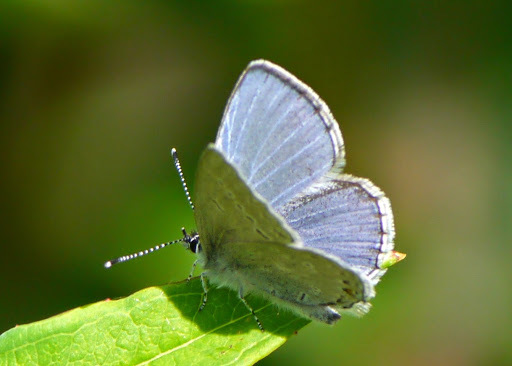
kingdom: Animalia
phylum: Arthropoda
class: Insecta
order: Lepidoptera
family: Lycaenidae
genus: Elkalyce
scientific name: Elkalyce amyntula
